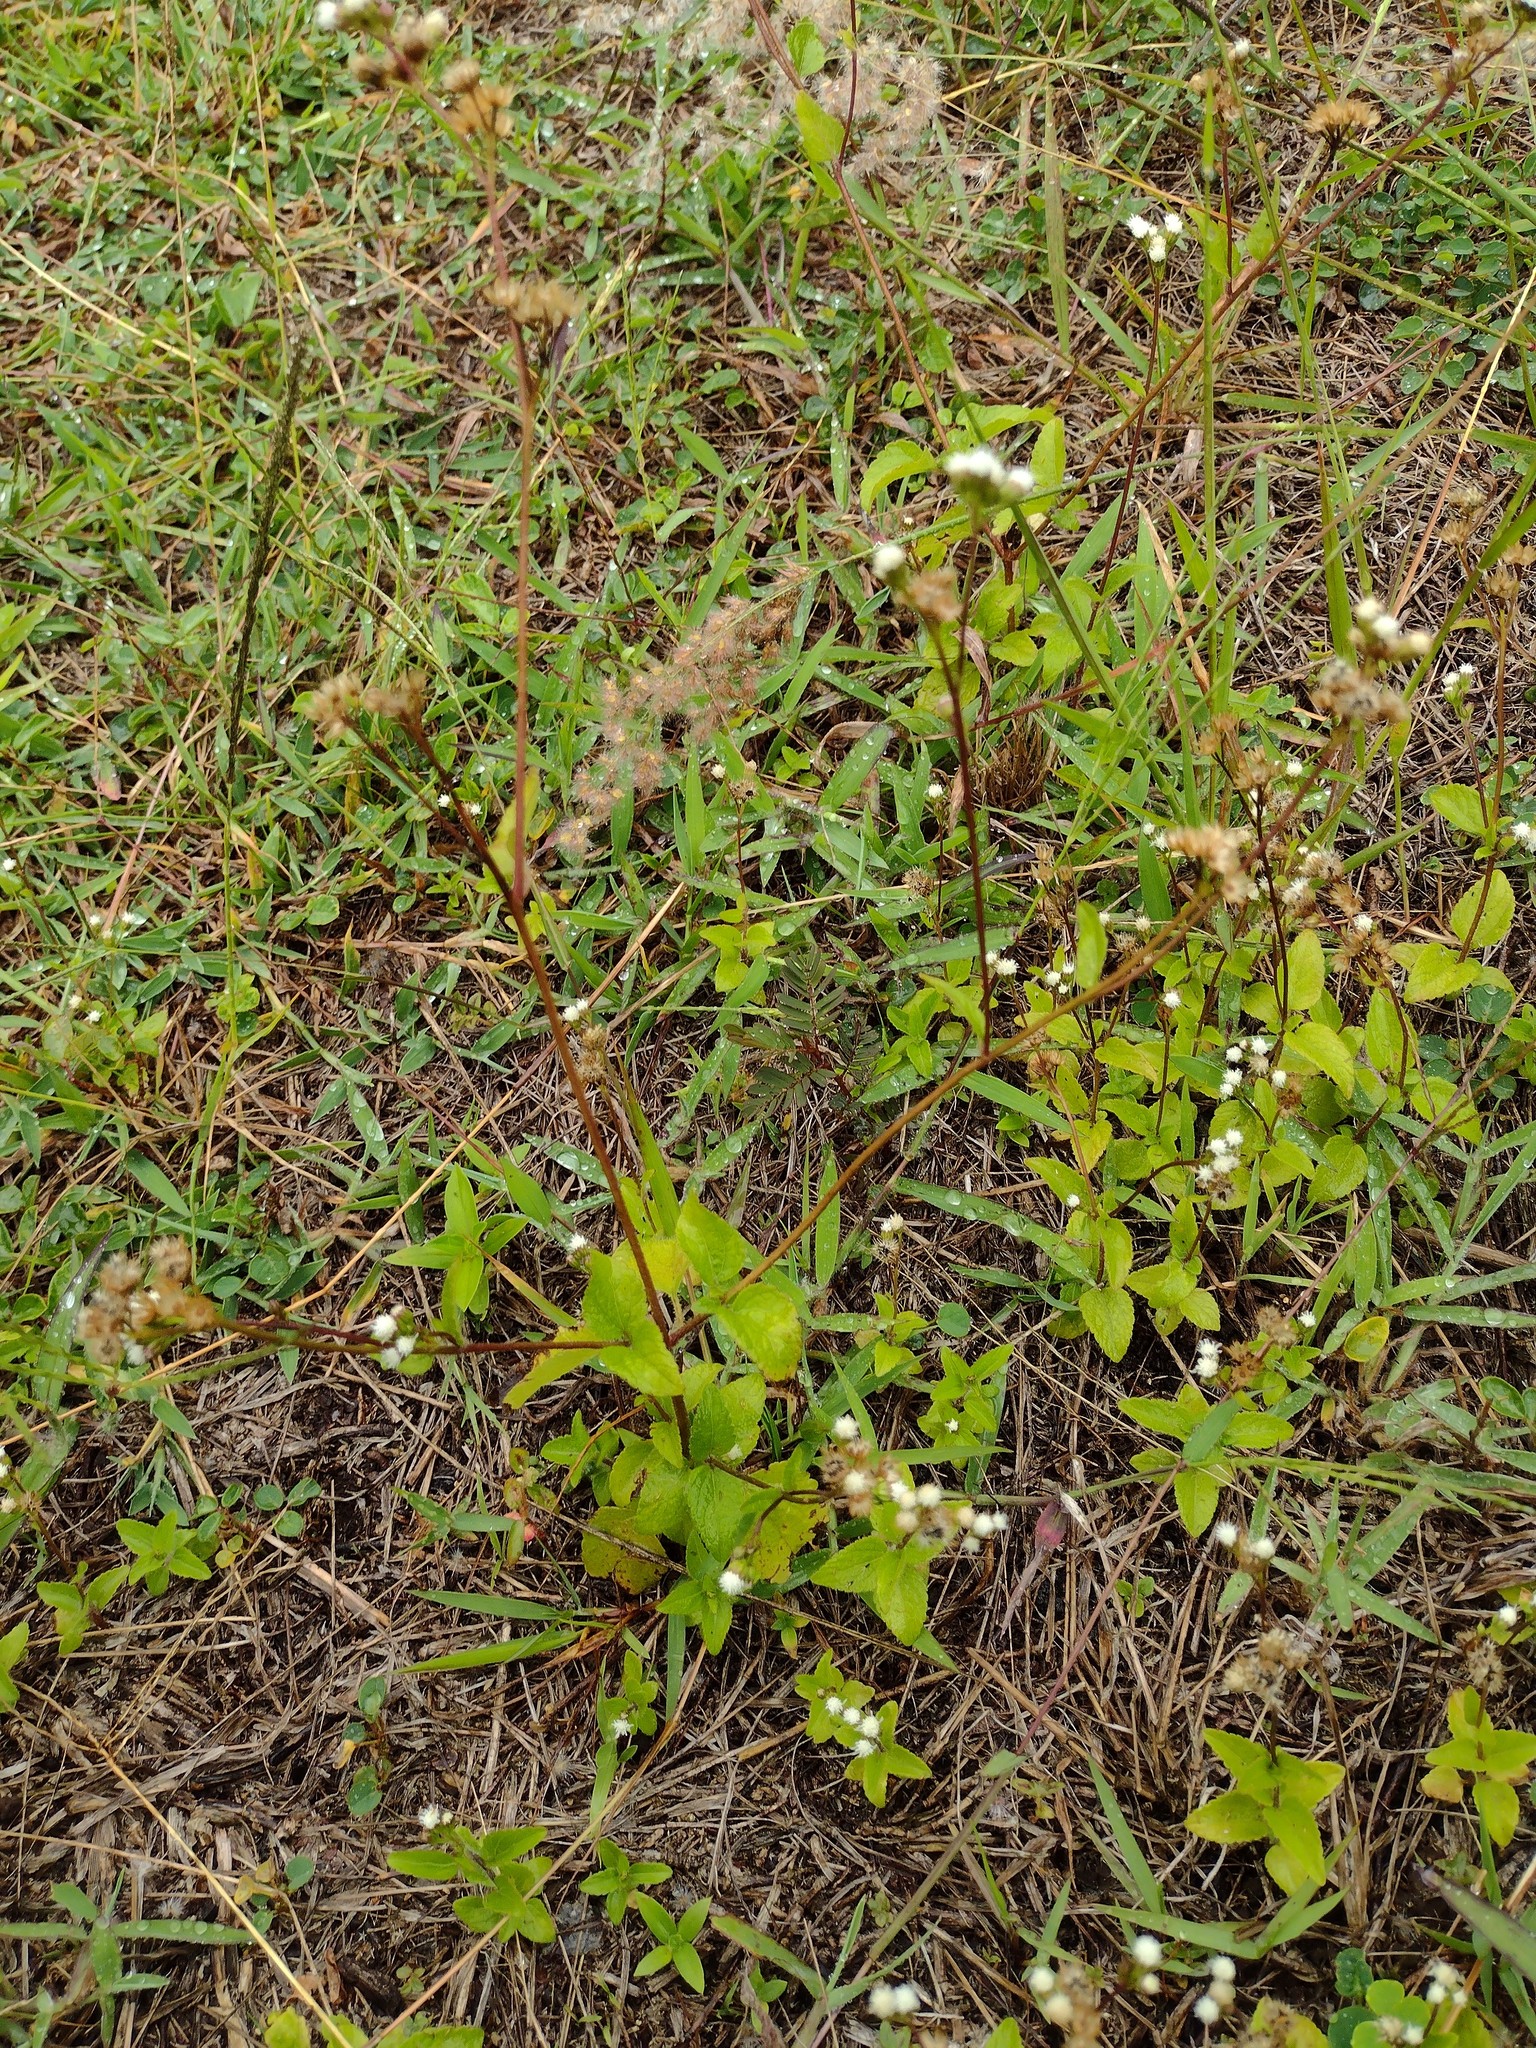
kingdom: Plantae
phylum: Tracheophyta
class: Magnoliopsida
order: Asterales
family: Asteraceae
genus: Ageratum
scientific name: Ageratum conyzoides
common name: Tropical whiteweed
